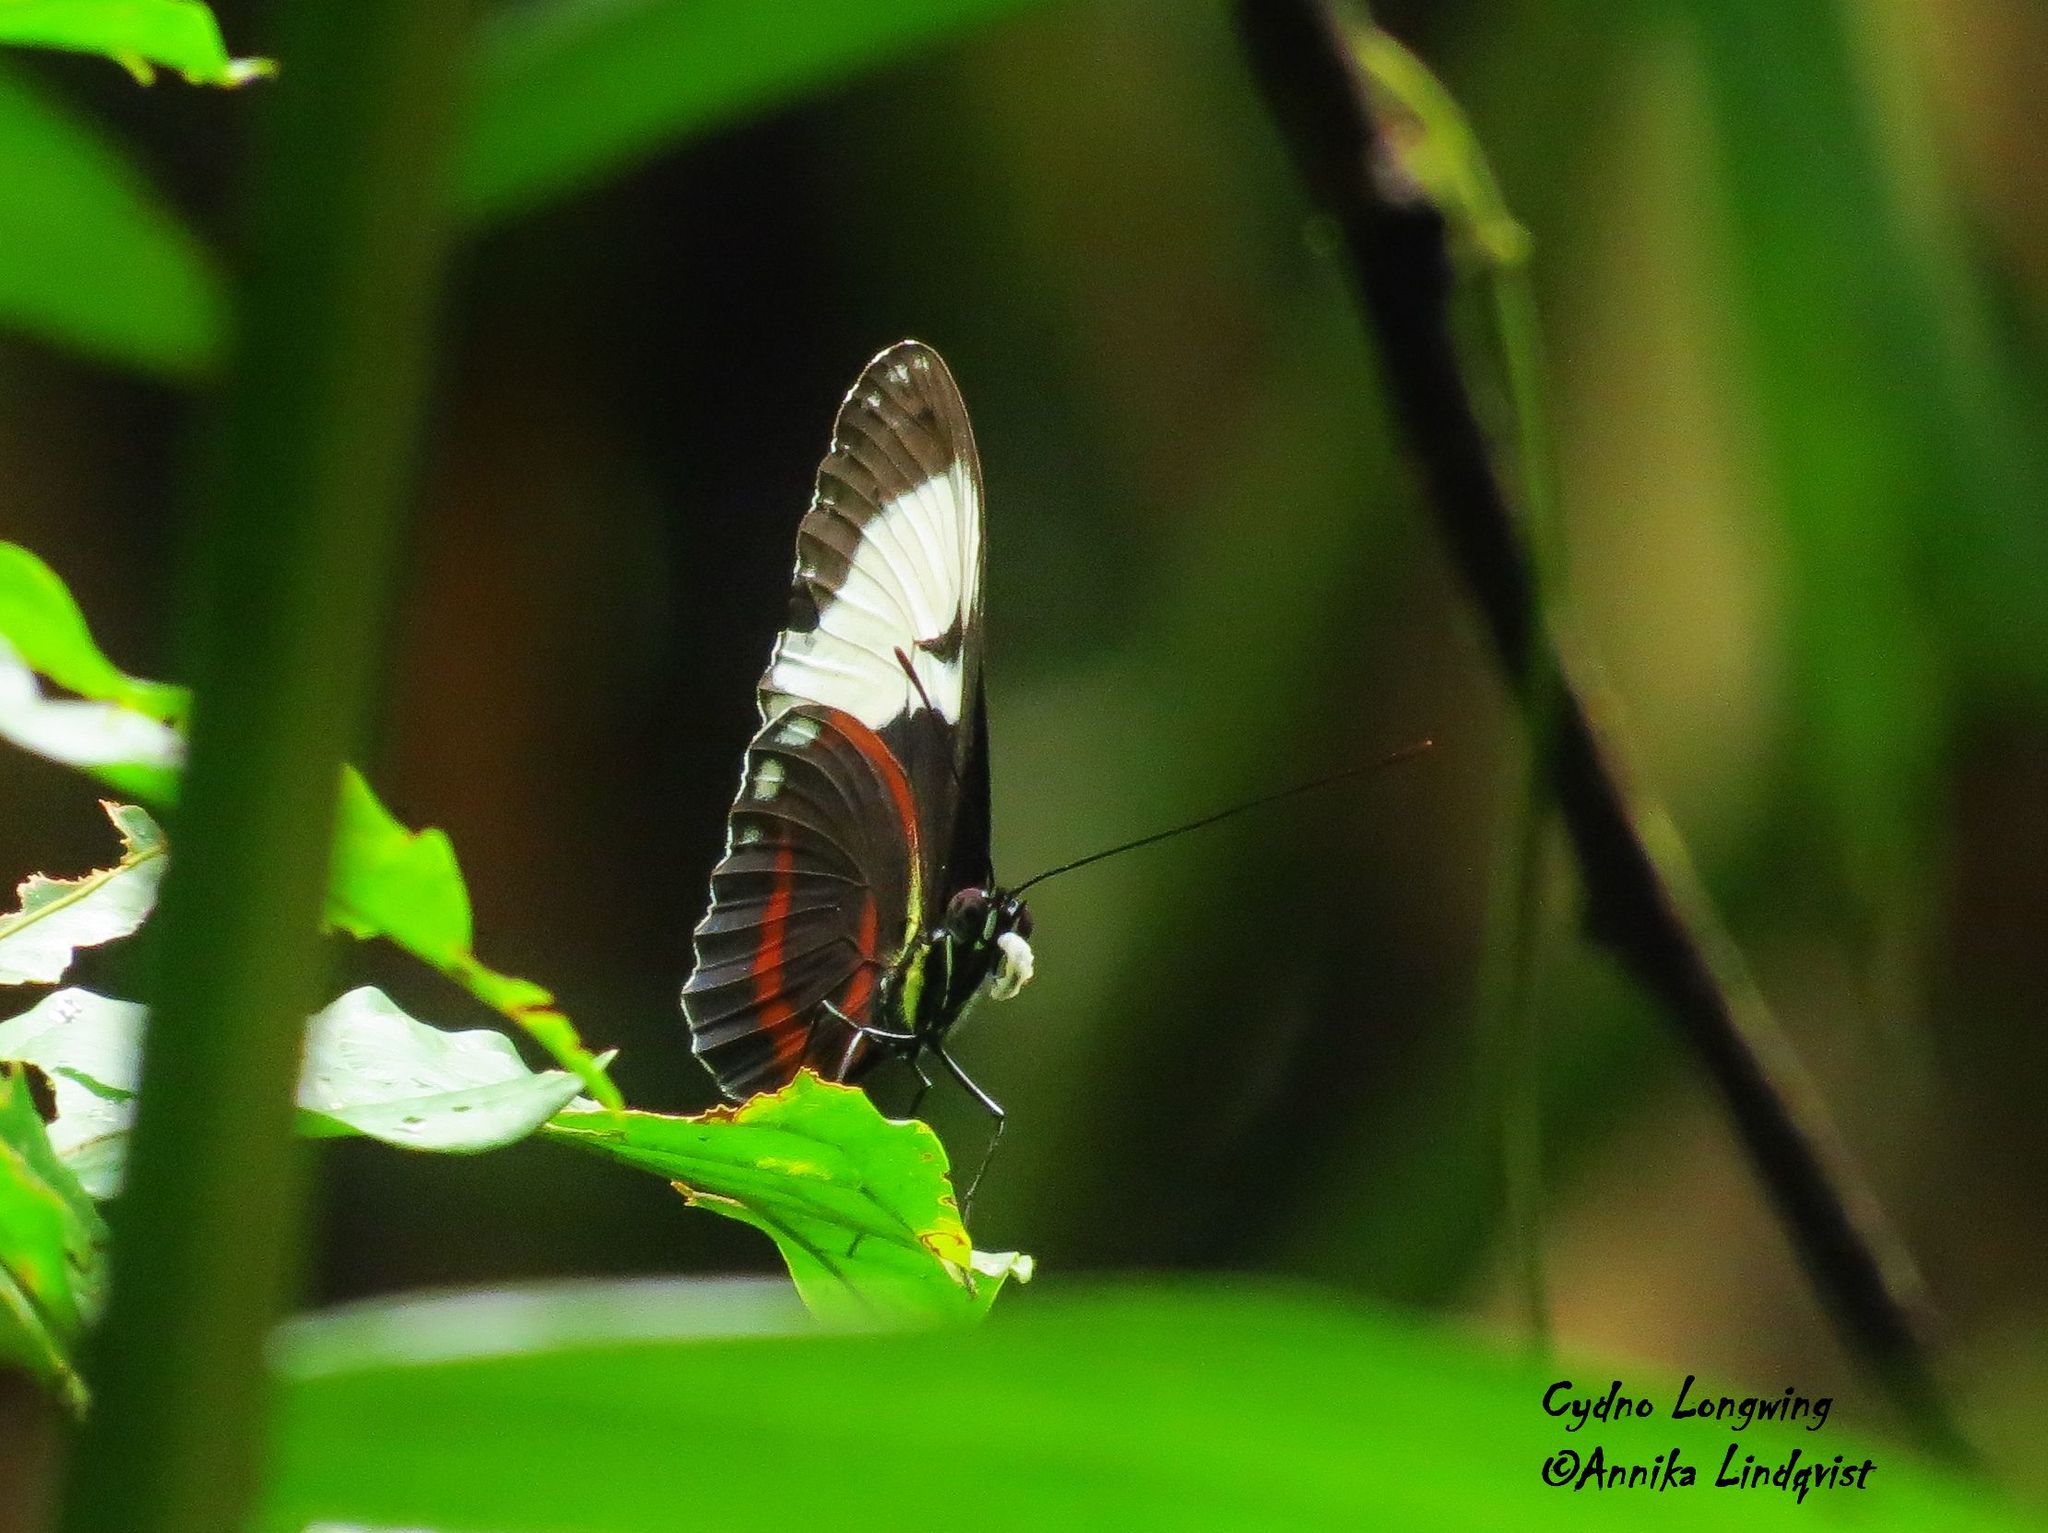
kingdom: Animalia
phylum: Arthropoda
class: Insecta
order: Lepidoptera
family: Nymphalidae
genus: Heliconius
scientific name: Heliconius cydno
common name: Cydno longwing
